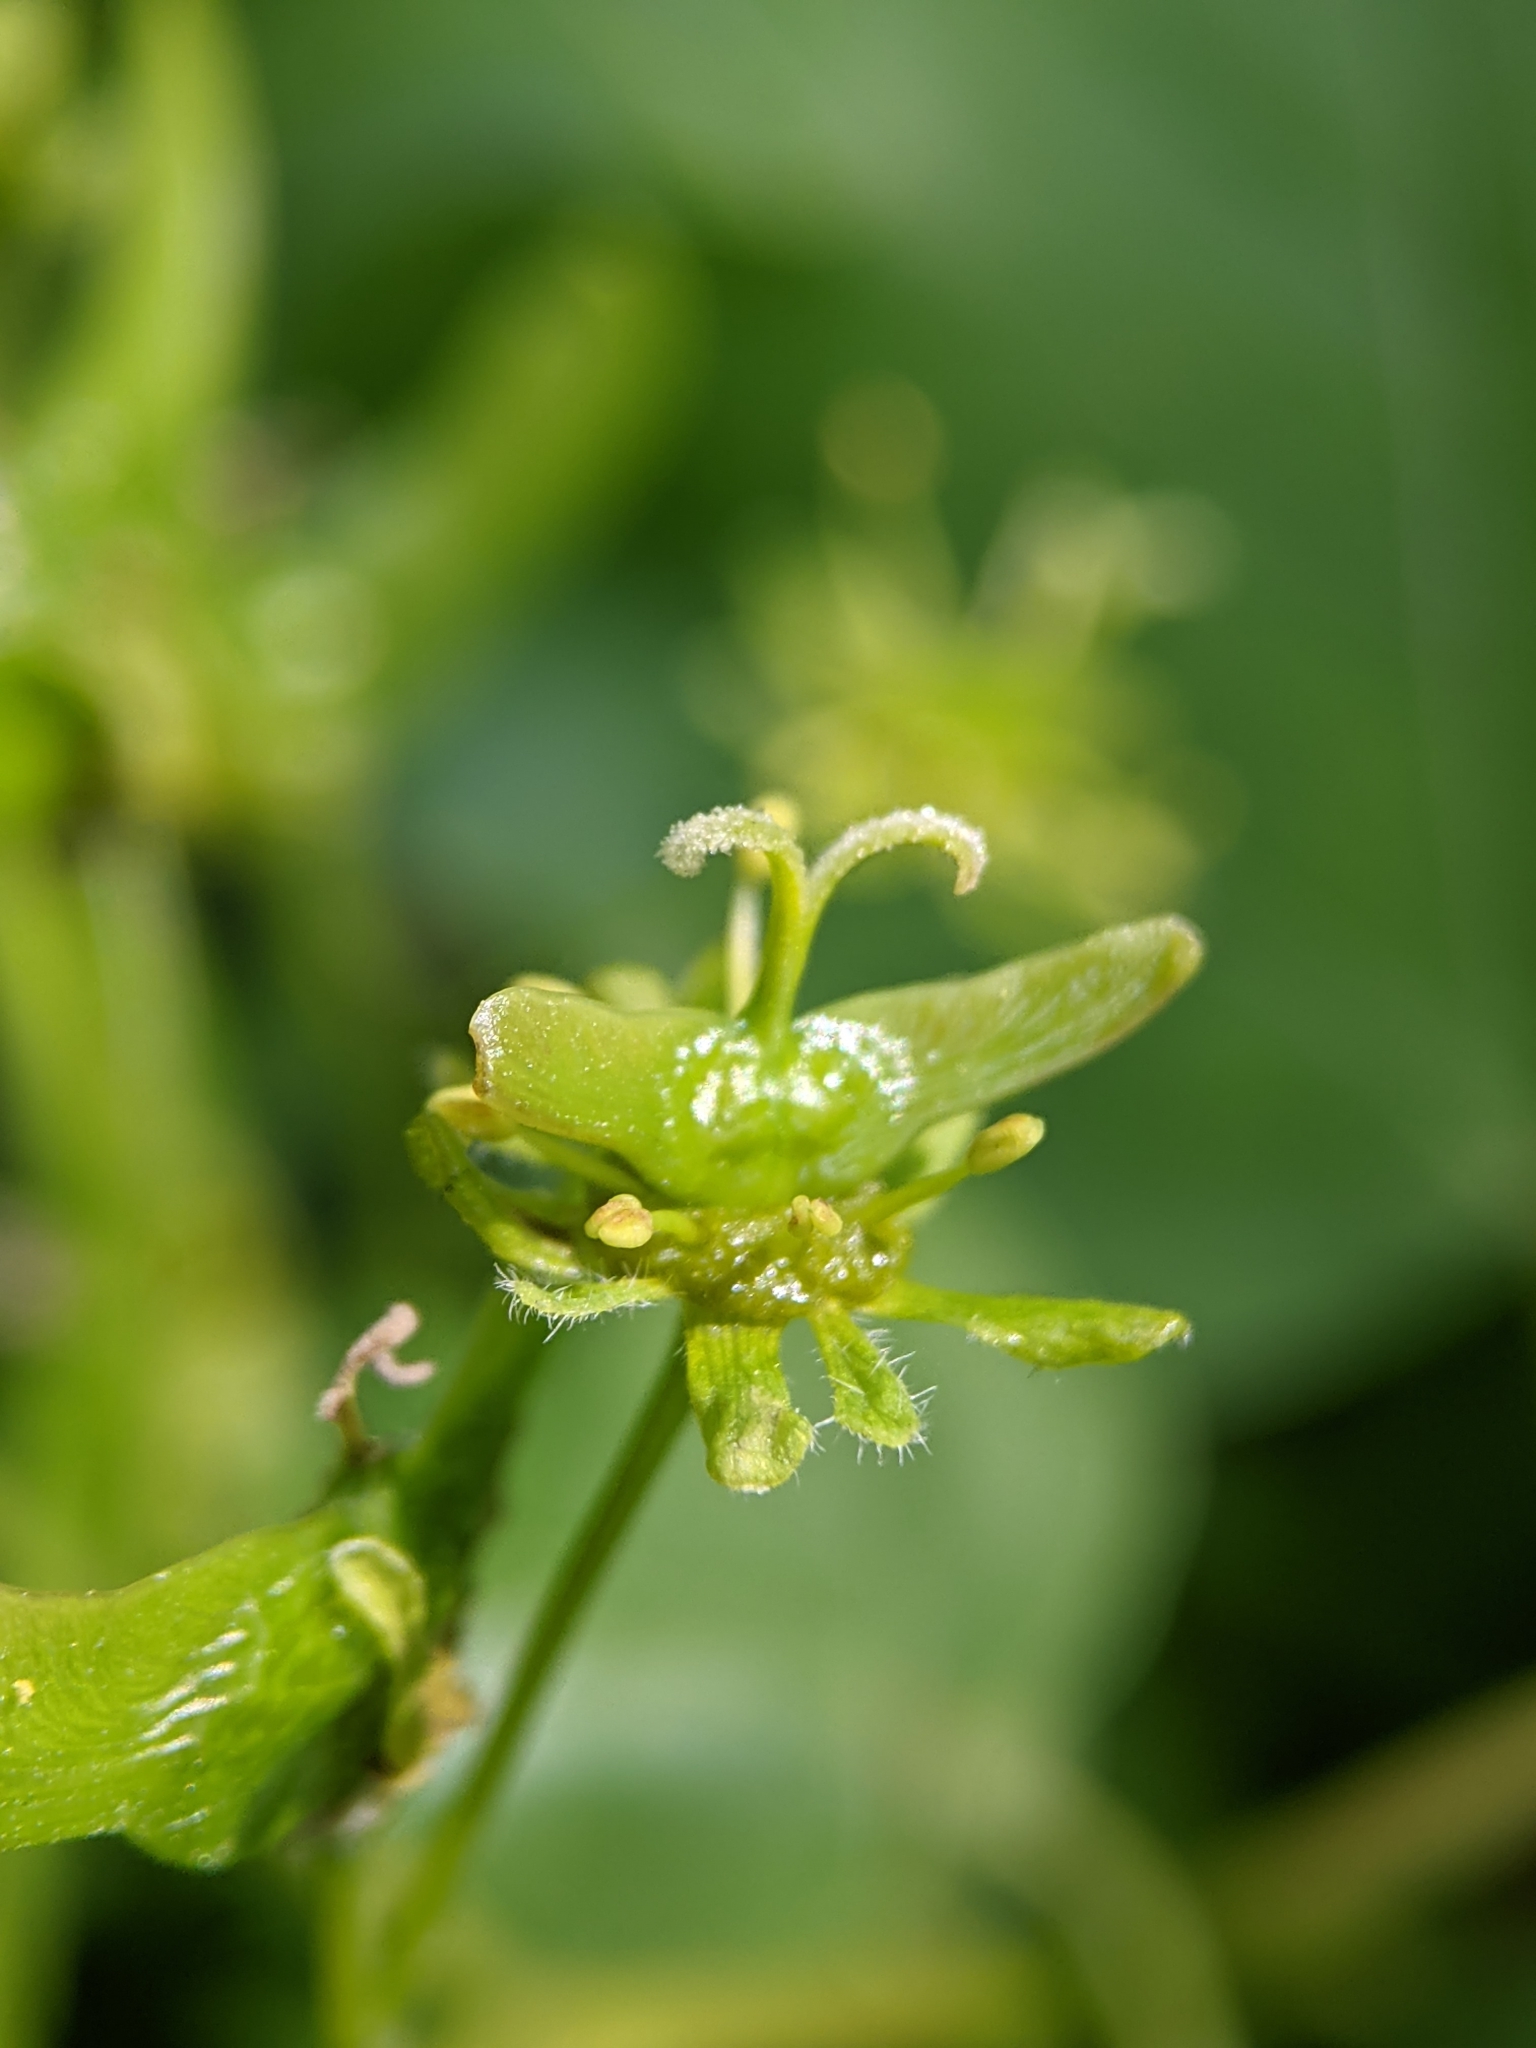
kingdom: Plantae
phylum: Tracheophyta
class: Magnoliopsida
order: Sapindales
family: Sapindaceae
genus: Acer
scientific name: Acer campestre
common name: Field maple
